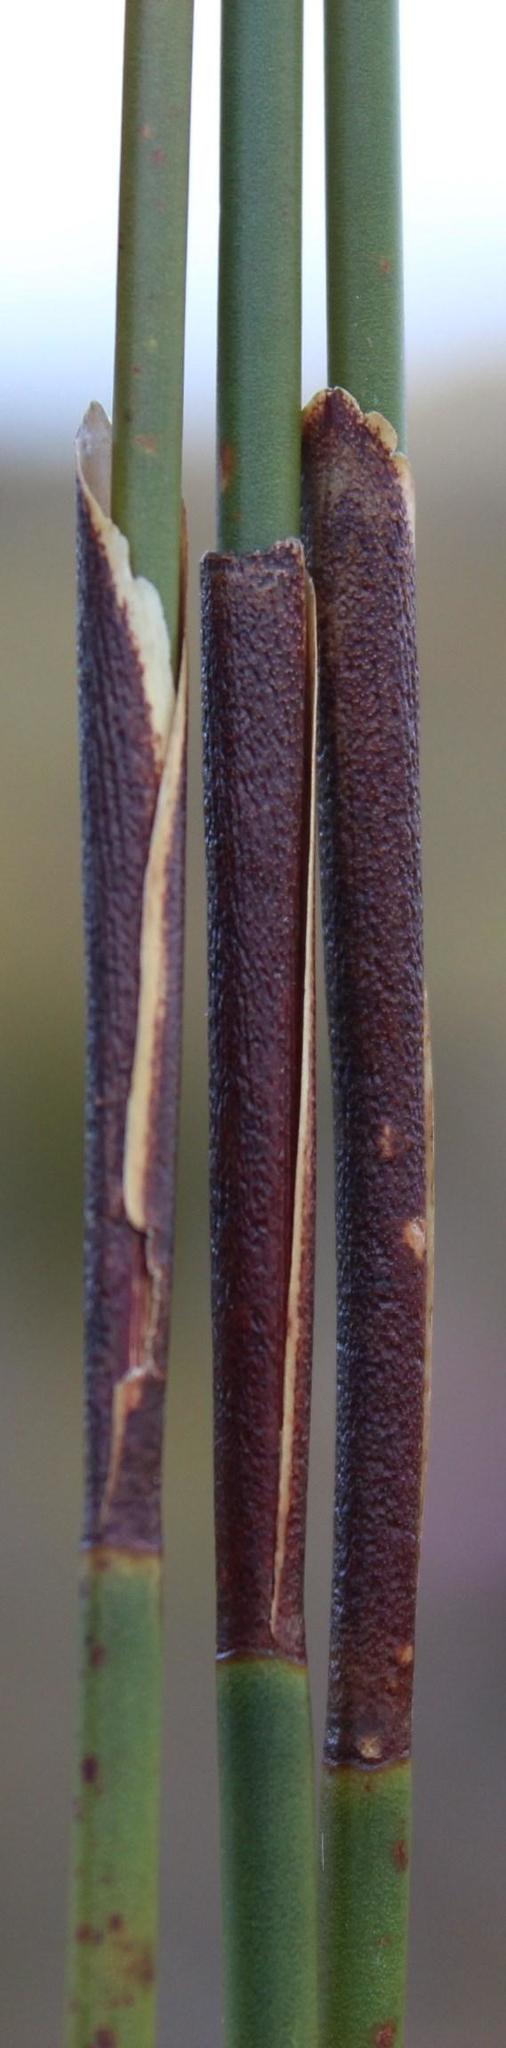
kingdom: Plantae
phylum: Tracheophyta
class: Liliopsida
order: Poales
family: Restionaceae
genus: Hypodiscus
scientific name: Hypodiscus aristatus
